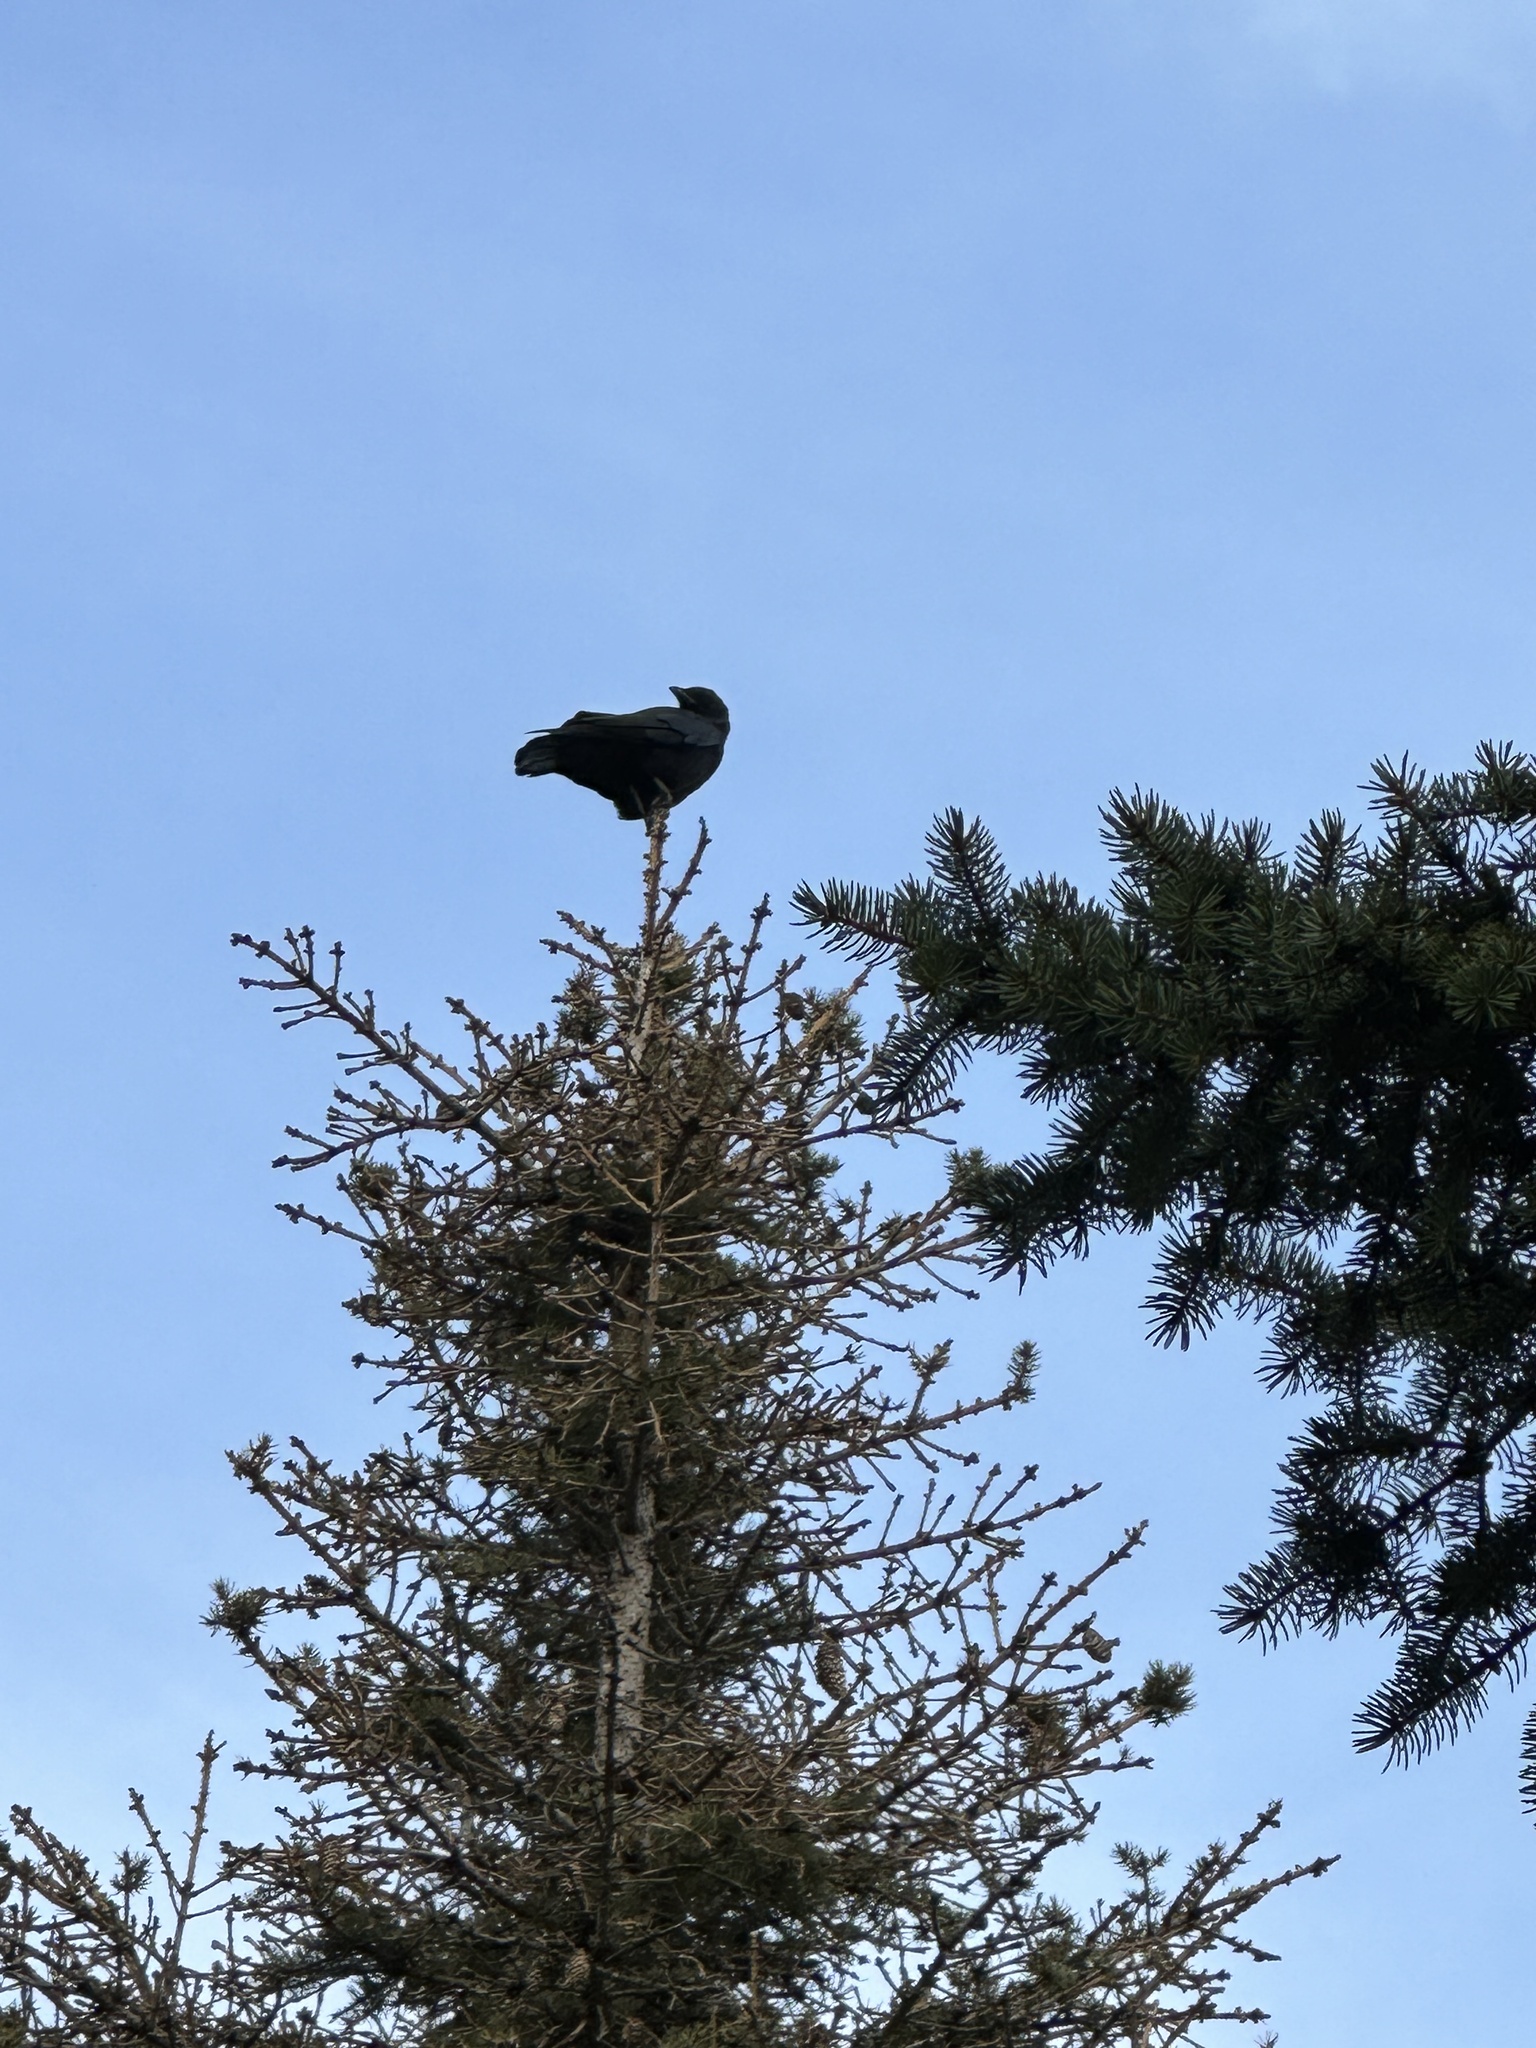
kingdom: Animalia
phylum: Chordata
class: Aves
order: Passeriformes
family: Corvidae
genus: Corvus
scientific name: Corvus brachyrhynchos
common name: American crow
